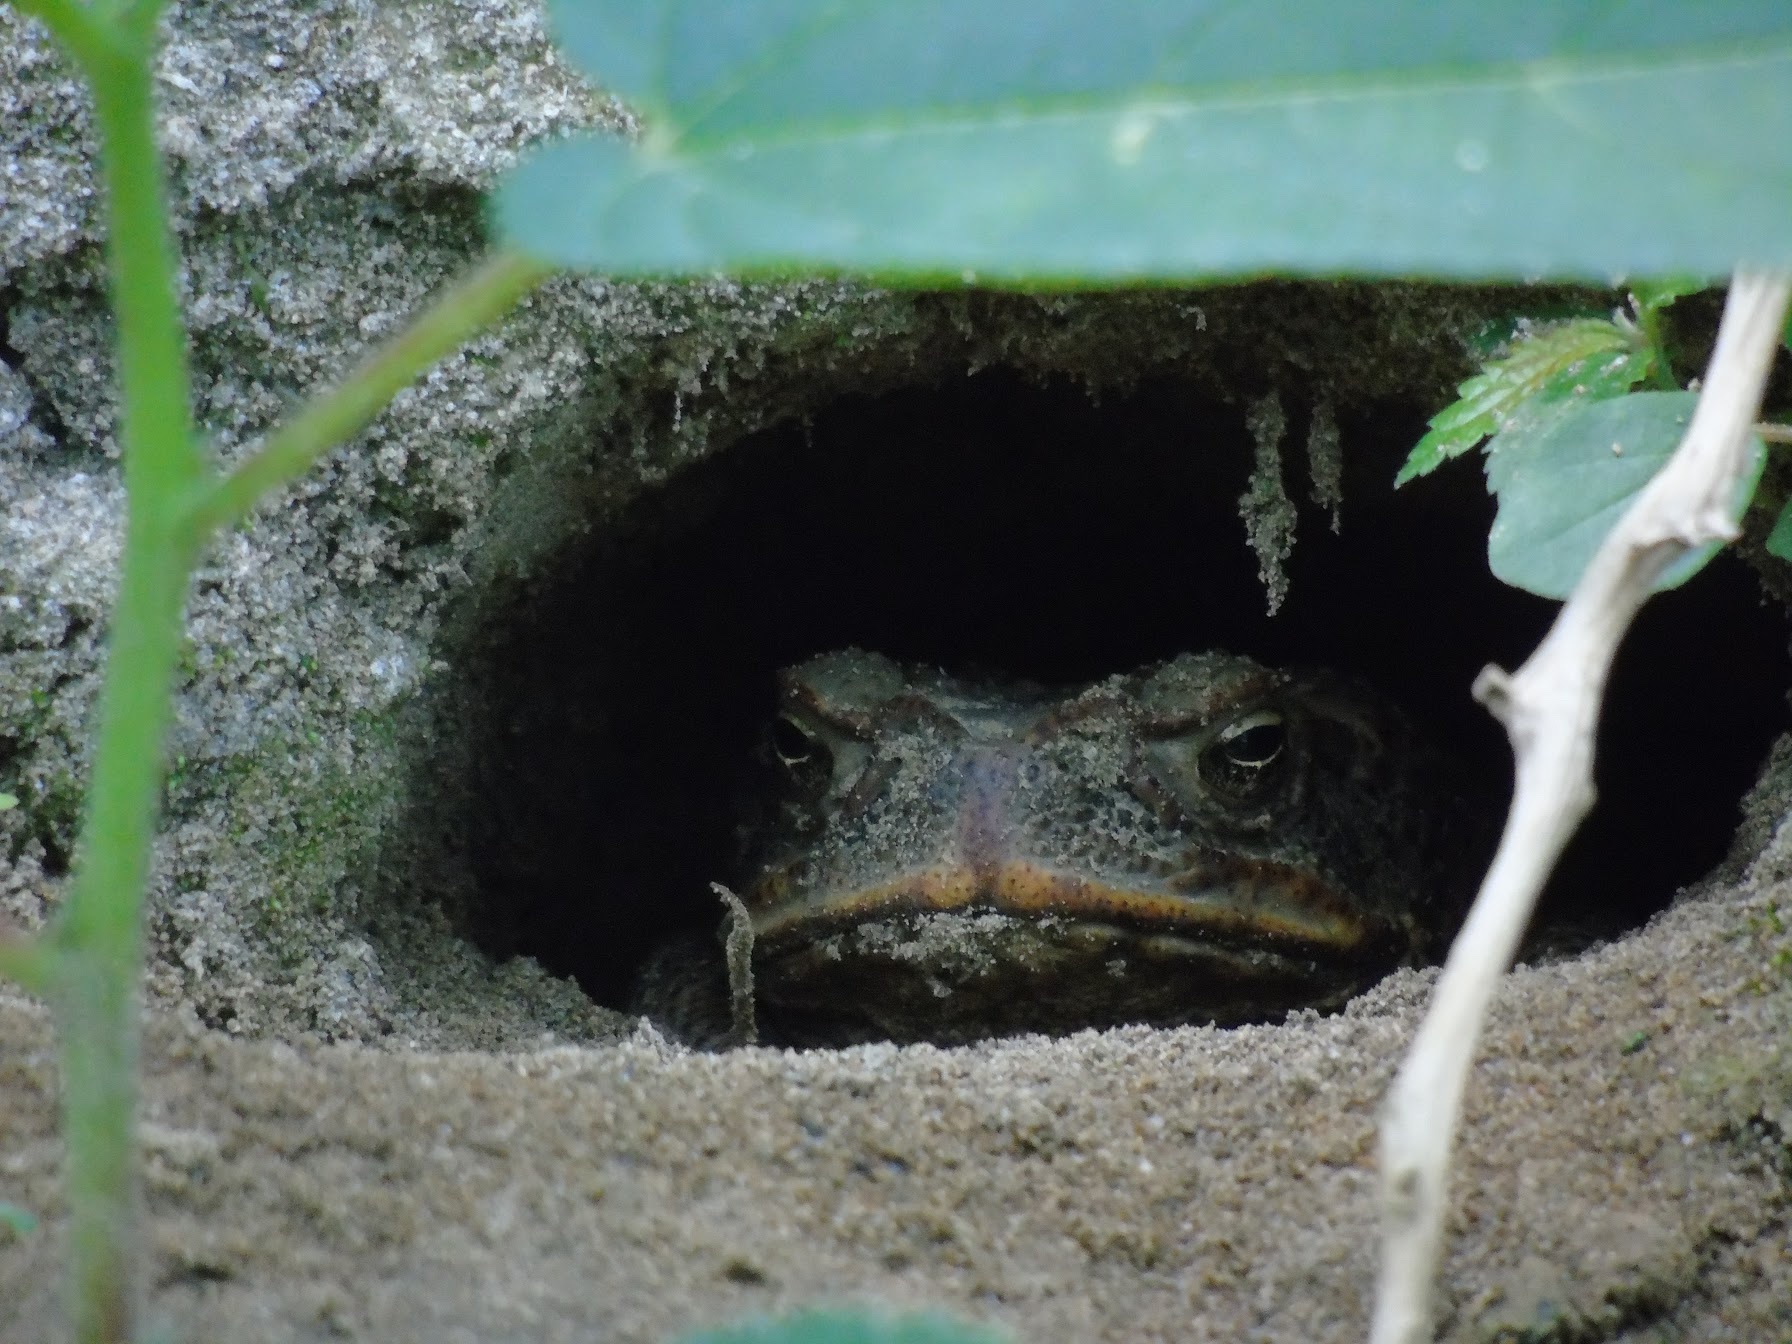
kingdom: Animalia
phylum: Chordata
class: Amphibia
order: Anura
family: Bufonidae
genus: Rhinella
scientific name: Rhinella marina
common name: Cane toad
